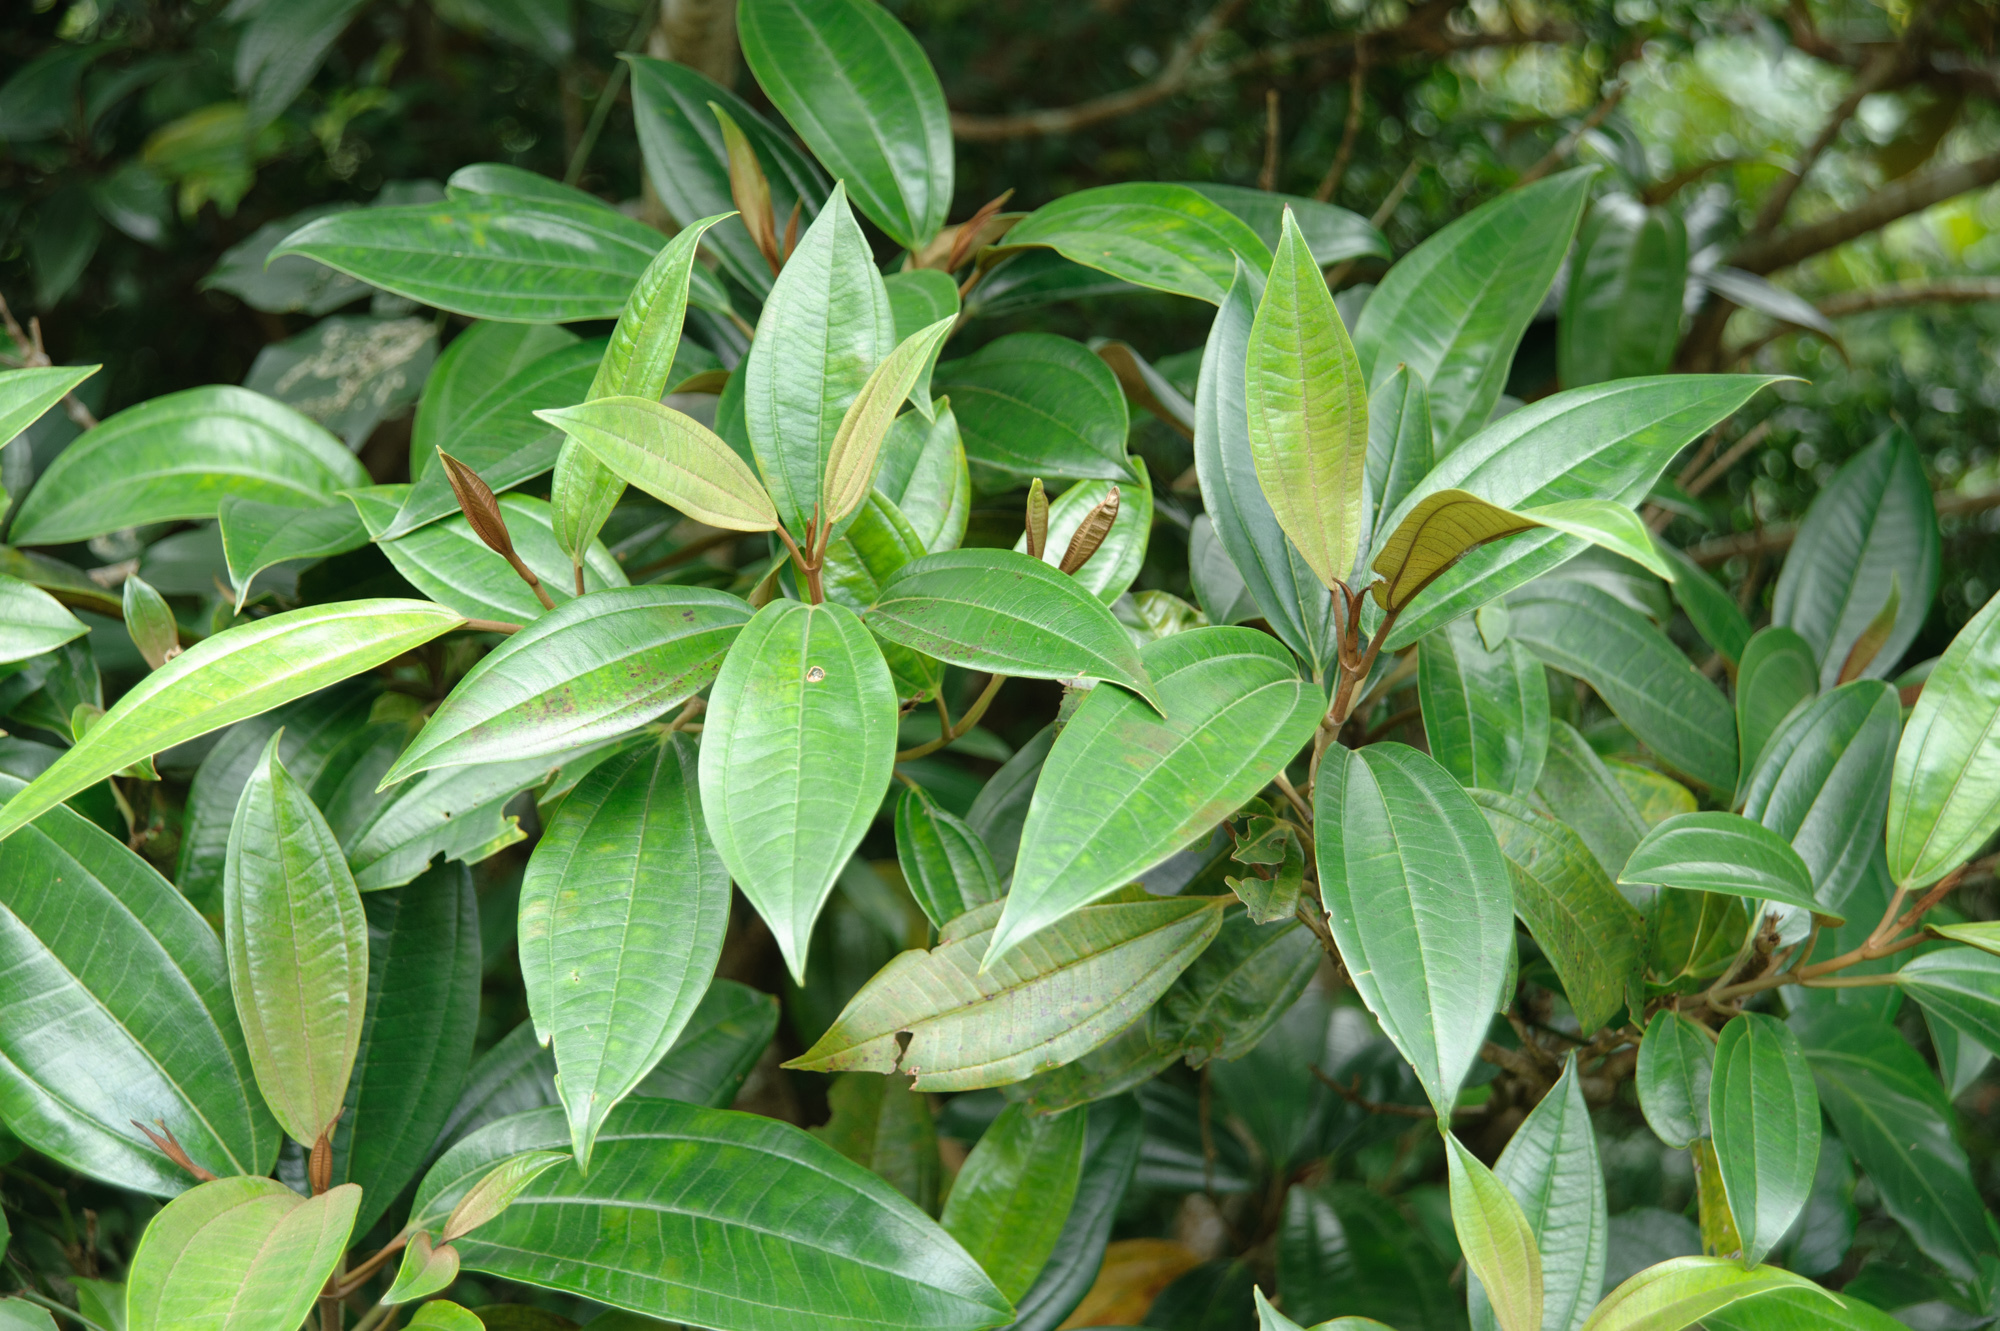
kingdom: Plantae
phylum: Tracheophyta
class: Magnoliopsida
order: Myrtales
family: Melastomataceae
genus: Astronia
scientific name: Astronia ferruginea
